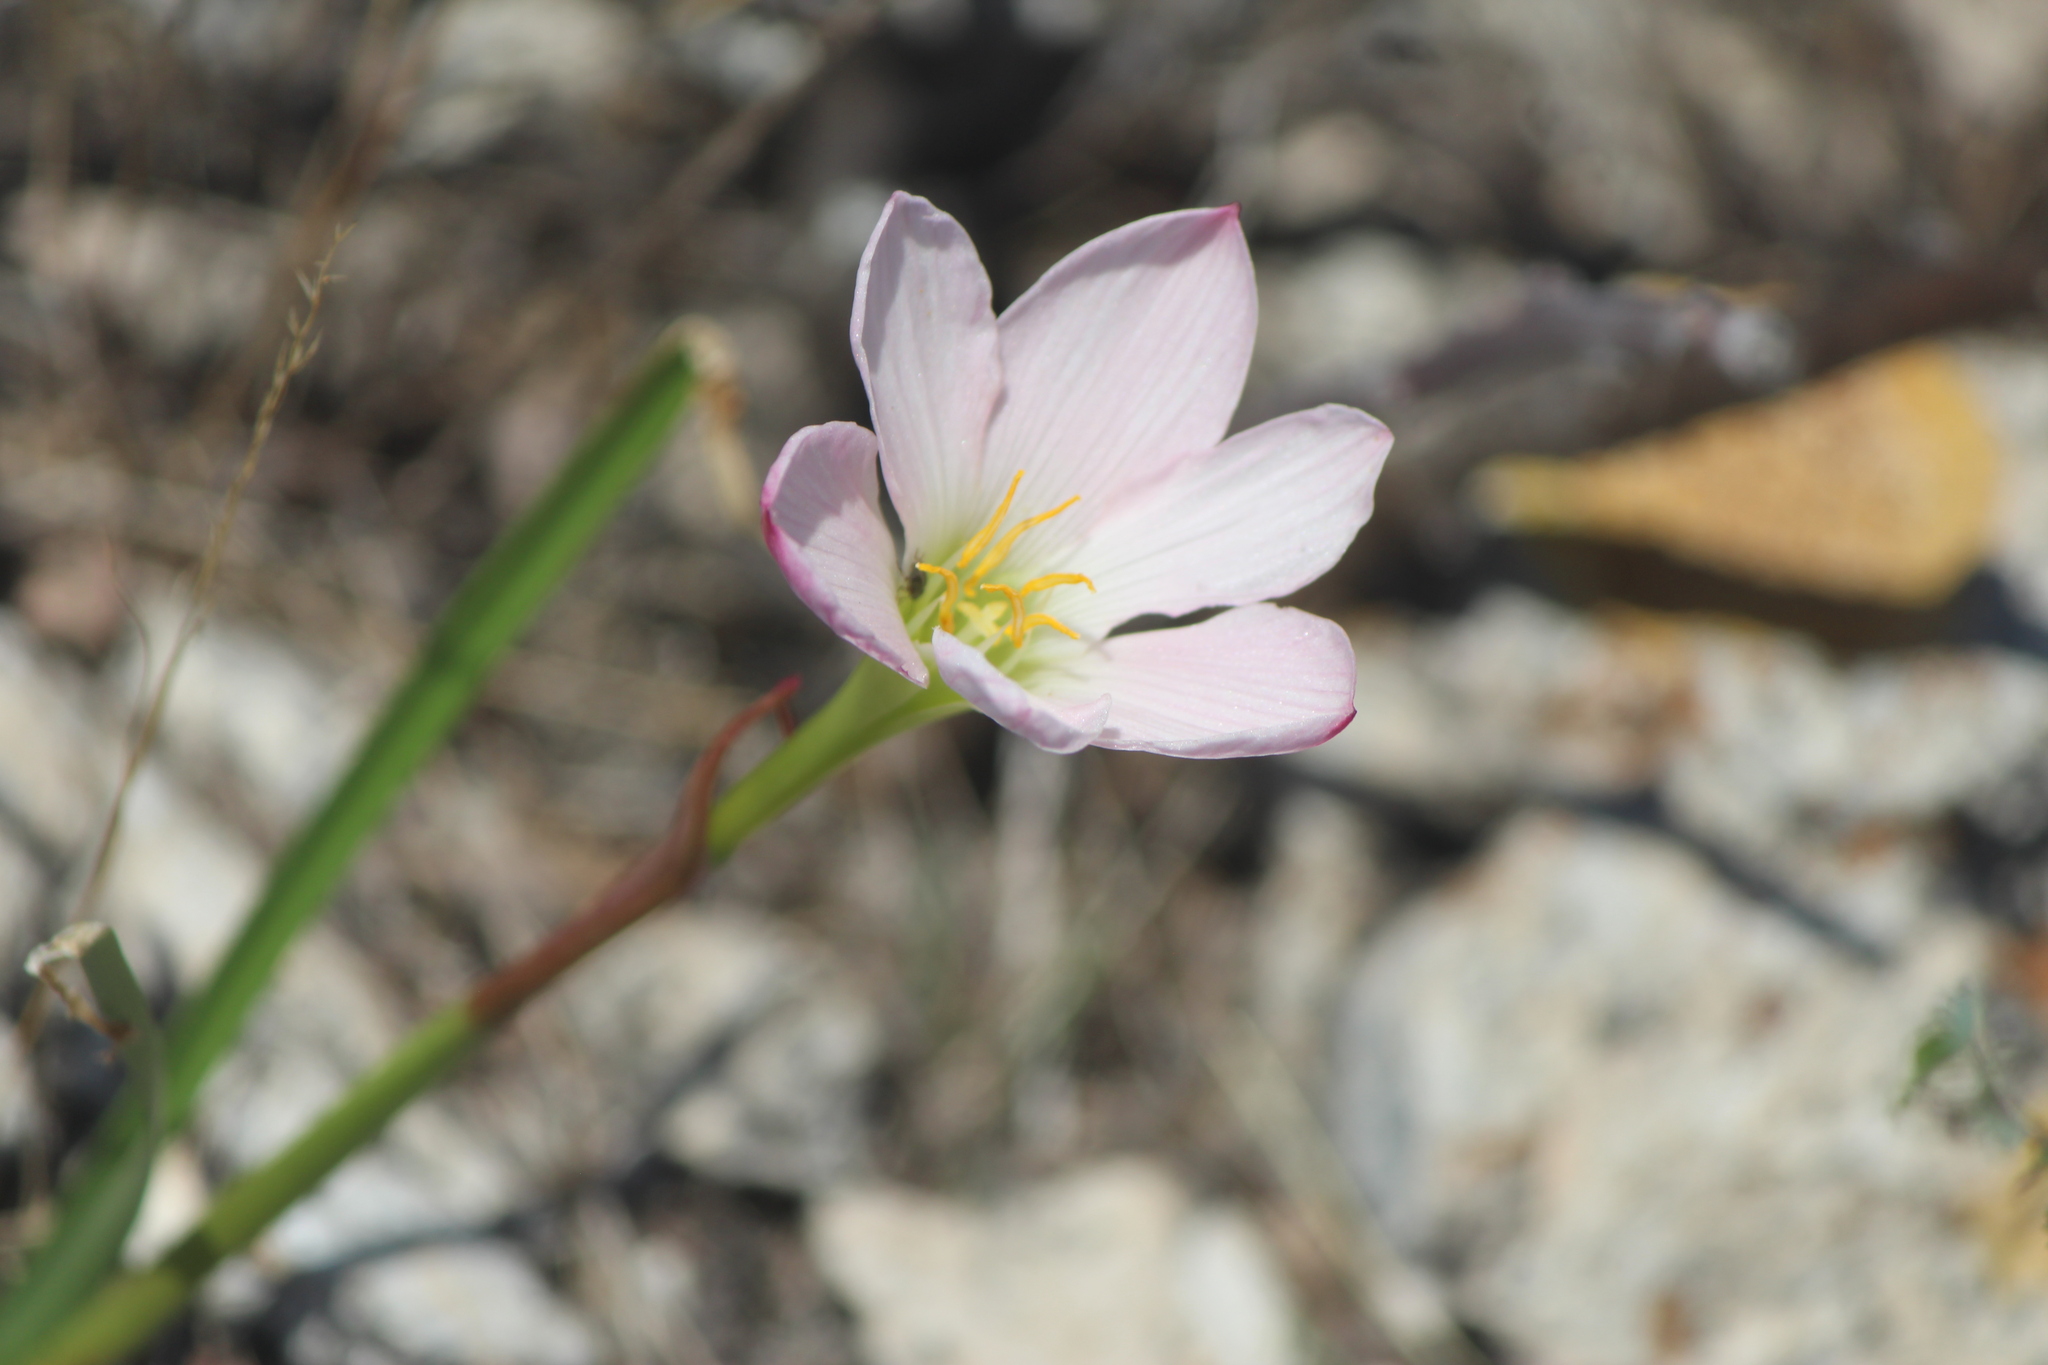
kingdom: Plantae
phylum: Tracheophyta
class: Liliopsida
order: Asparagales
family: Amaryllidaceae
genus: Zephyranthes
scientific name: Zephyranthes fosteri
